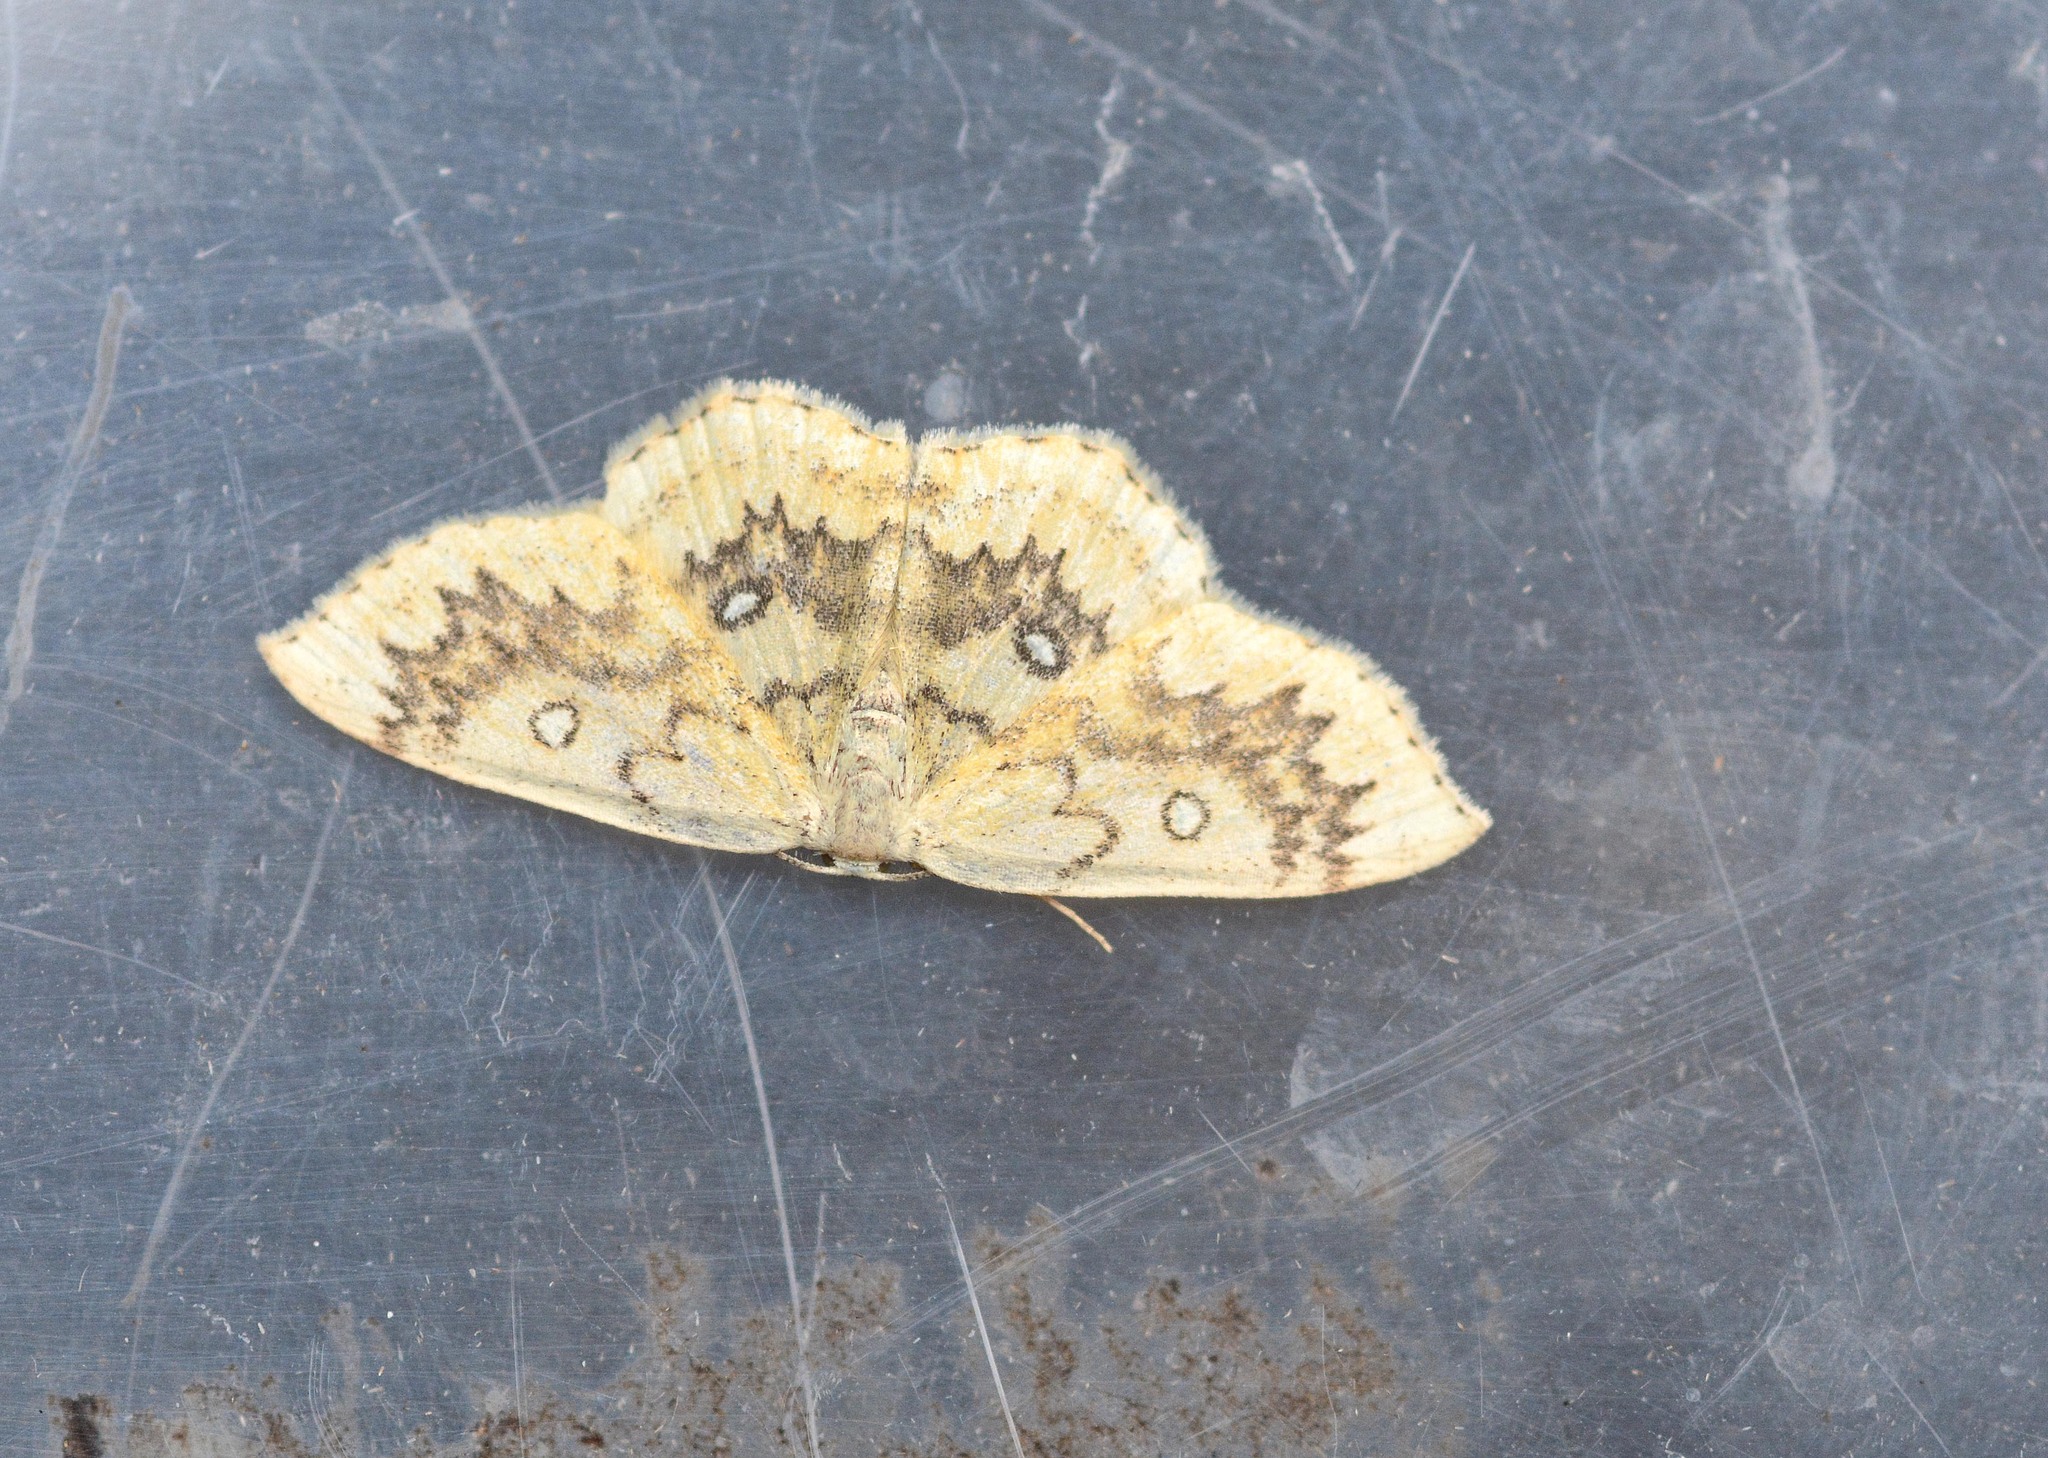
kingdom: Animalia
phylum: Arthropoda
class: Insecta
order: Lepidoptera
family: Geometridae
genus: Cyclophora
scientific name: Cyclophora annularia
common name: Mocha
